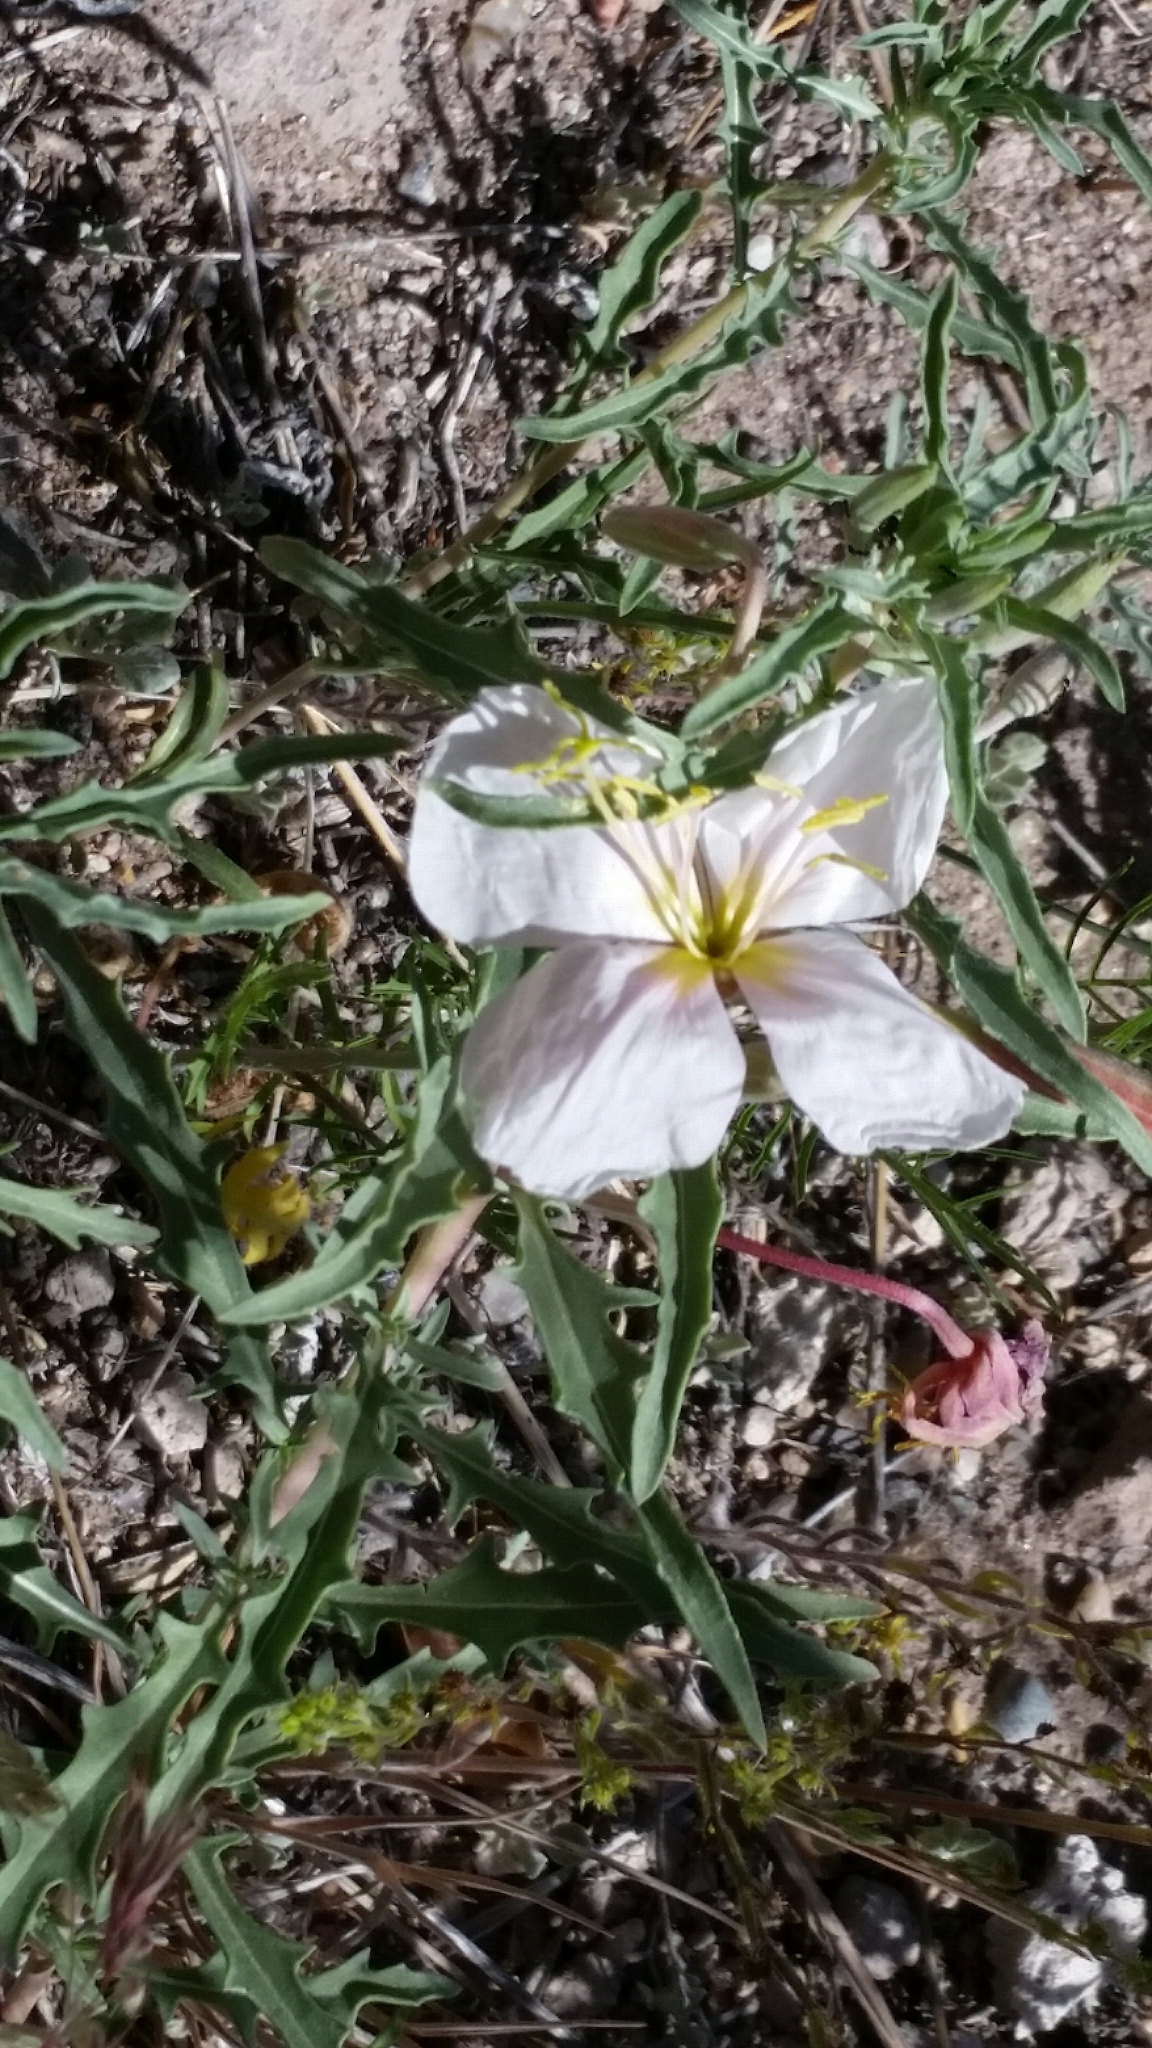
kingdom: Plantae
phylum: Tracheophyta
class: Magnoliopsida
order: Myrtales
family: Onagraceae
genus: Oenothera
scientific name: Oenothera albicaulis
